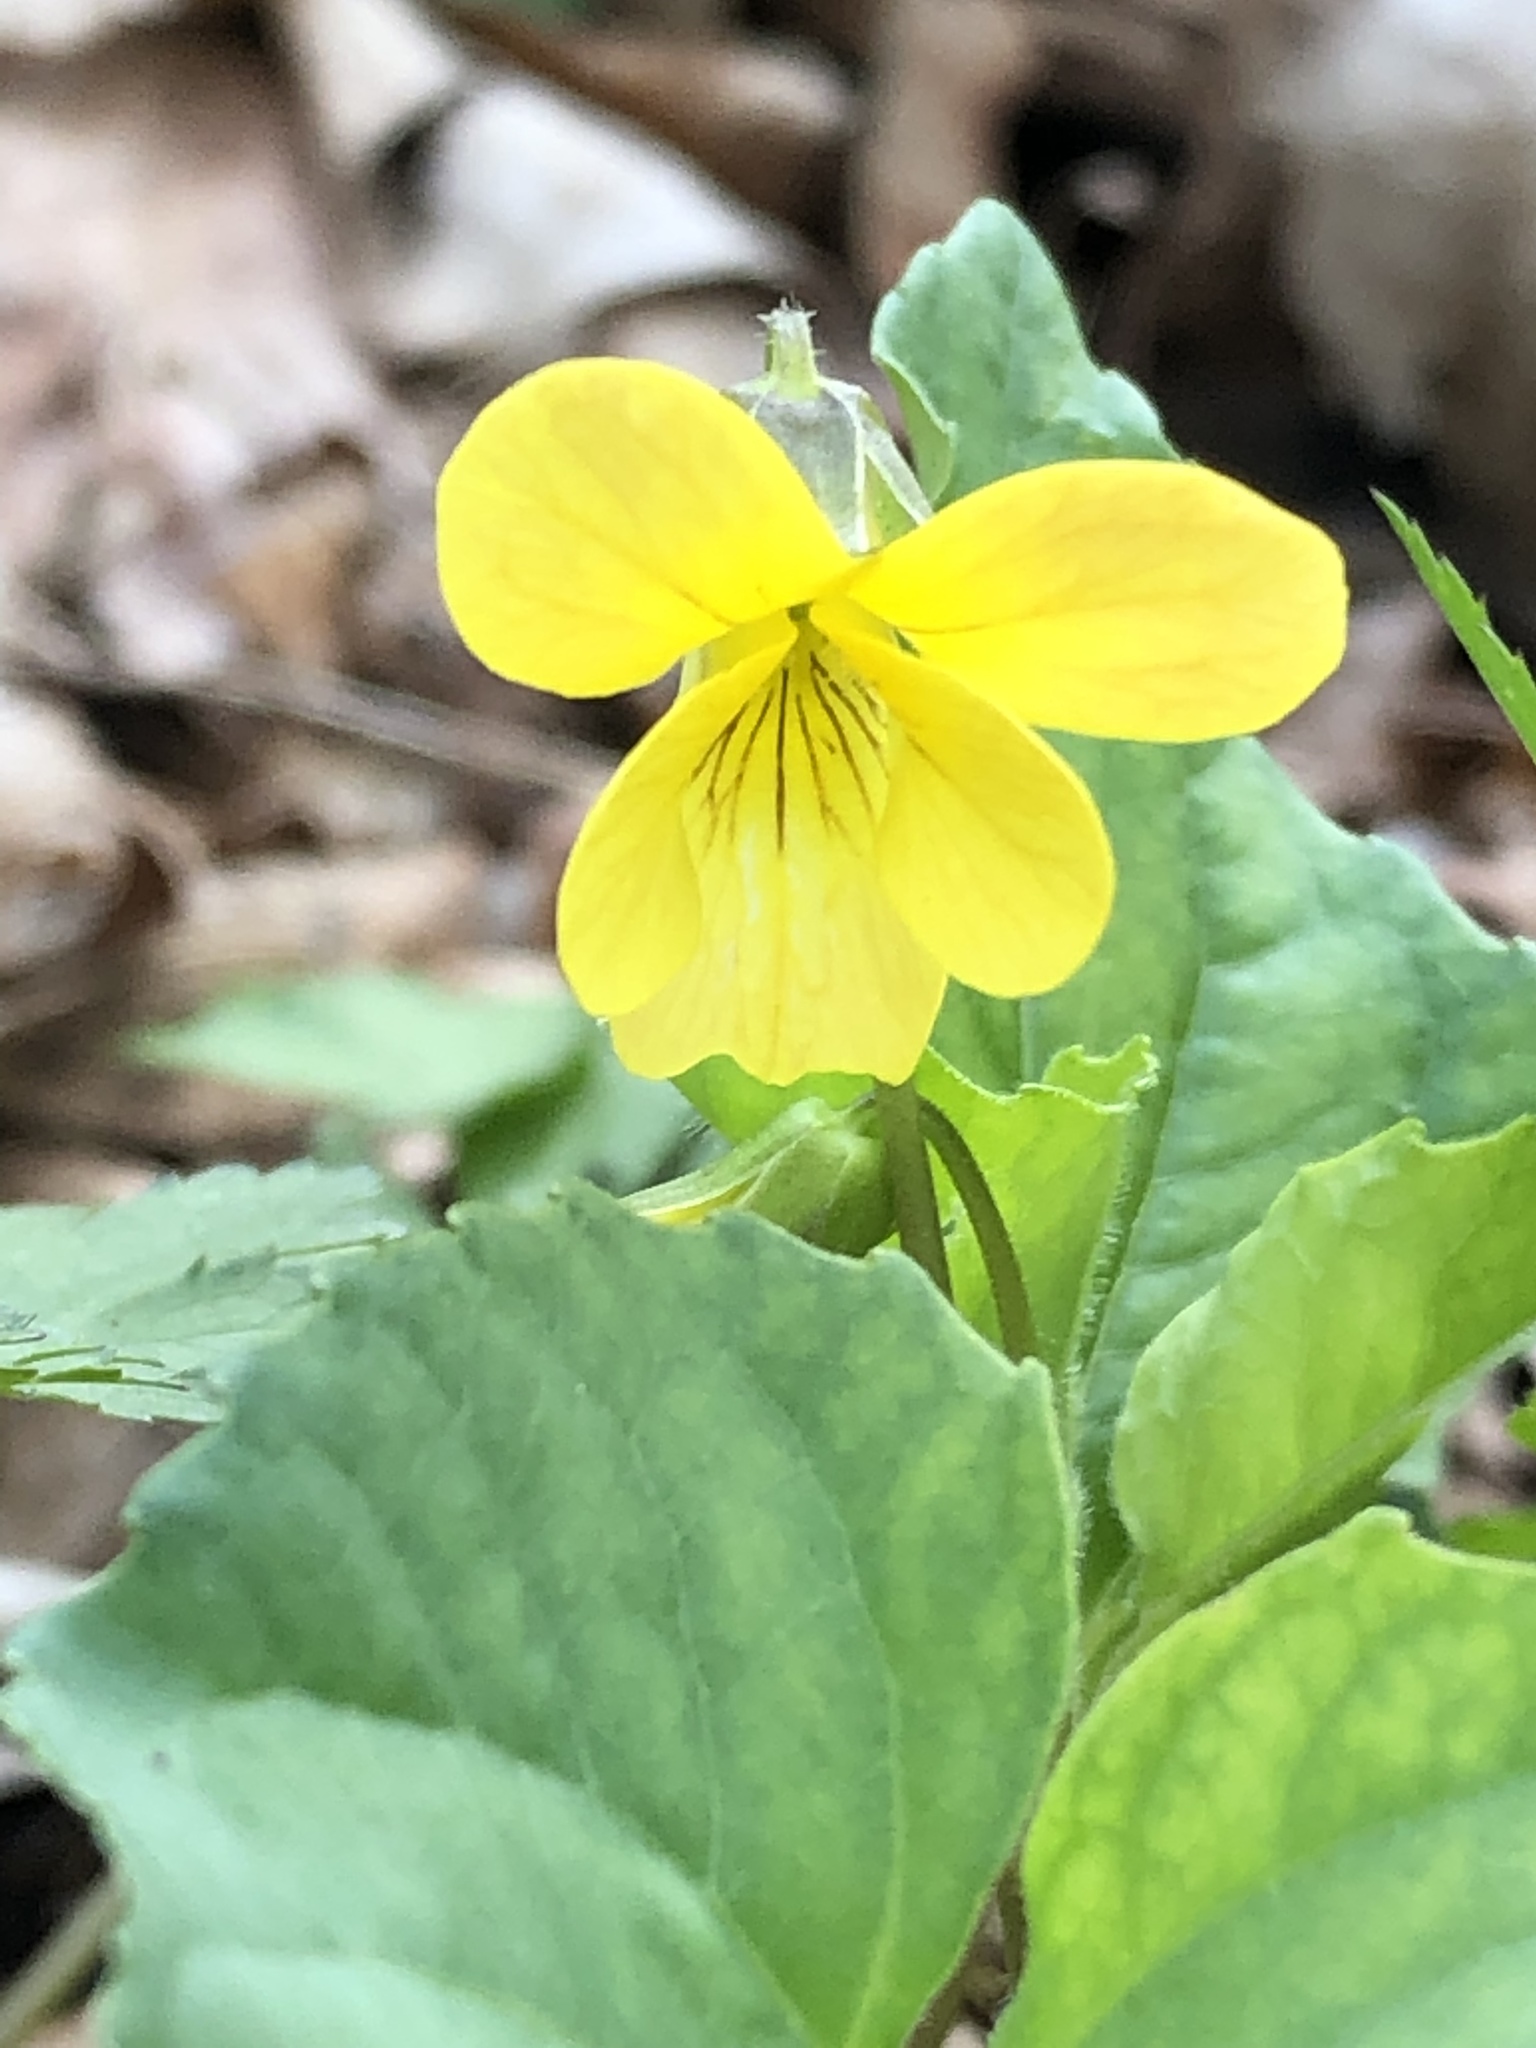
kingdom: Plantae
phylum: Tracheophyta
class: Magnoliopsida
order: Malpighiales
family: Violaceae
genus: Viola
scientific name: Viola eriocarpa
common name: Smooth yellow violet
